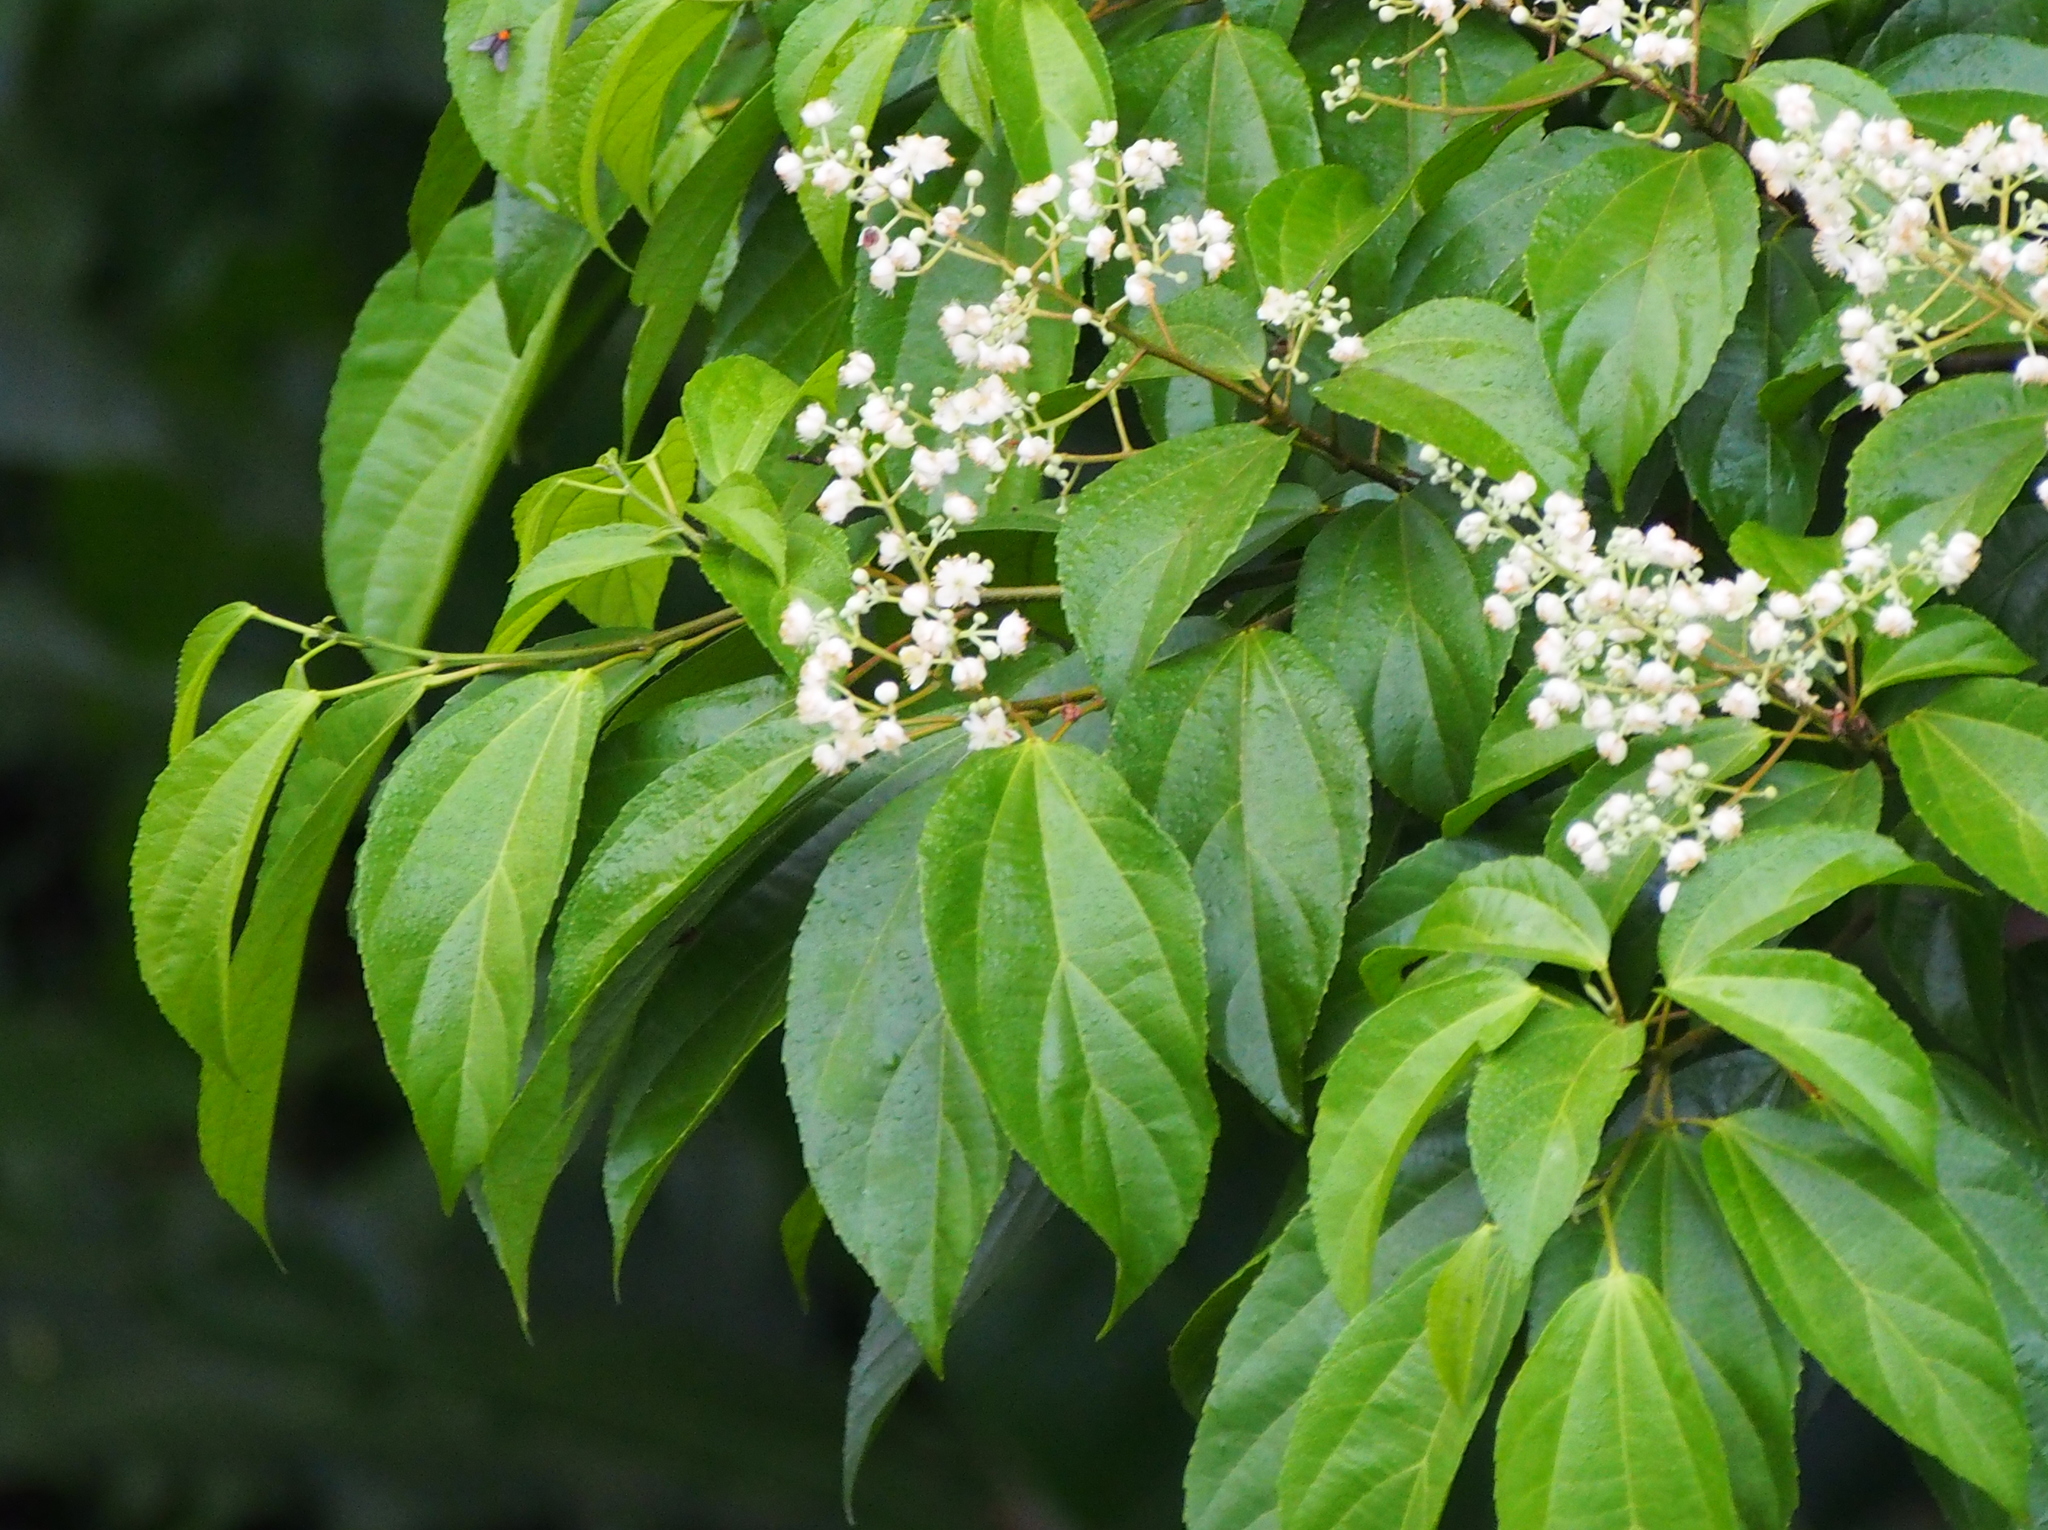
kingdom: Plantae
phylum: Tracheophyta
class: Magnoliopsida
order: Malpighiales
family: Salicaceae
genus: Hasseltia
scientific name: Hasseltia floribunda
